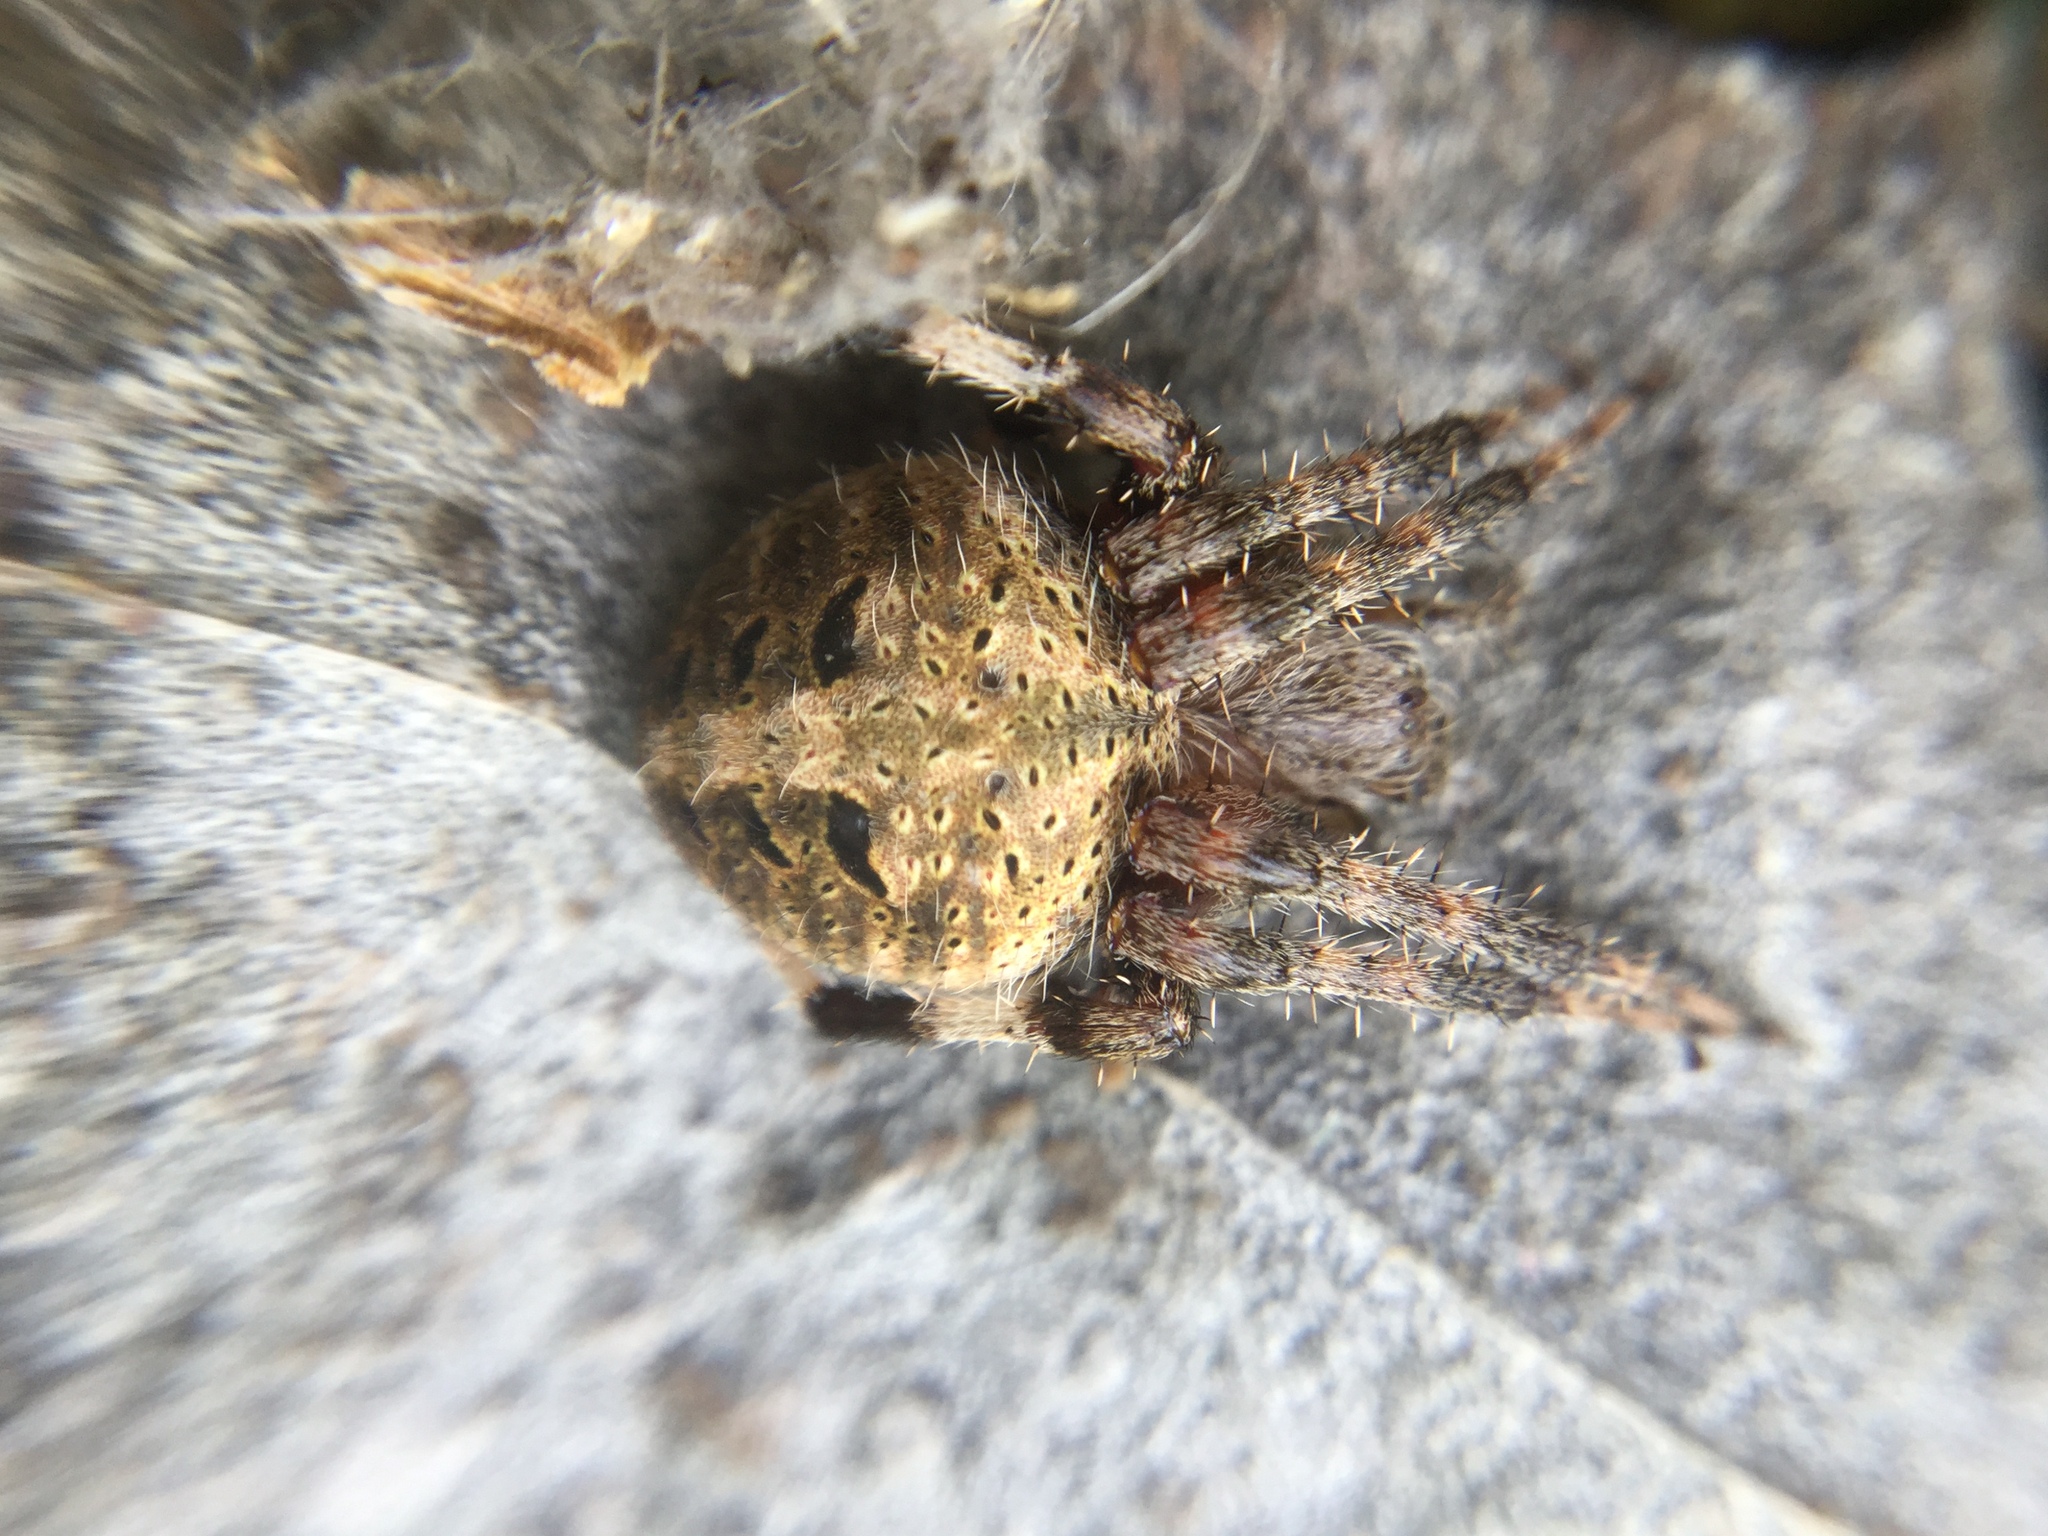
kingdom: Animalia
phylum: Arthropoda
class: Arachnida
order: Araneae
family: Araneidae
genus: Neoscona
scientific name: Neoscona crucifera
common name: Spotted orbweaver
